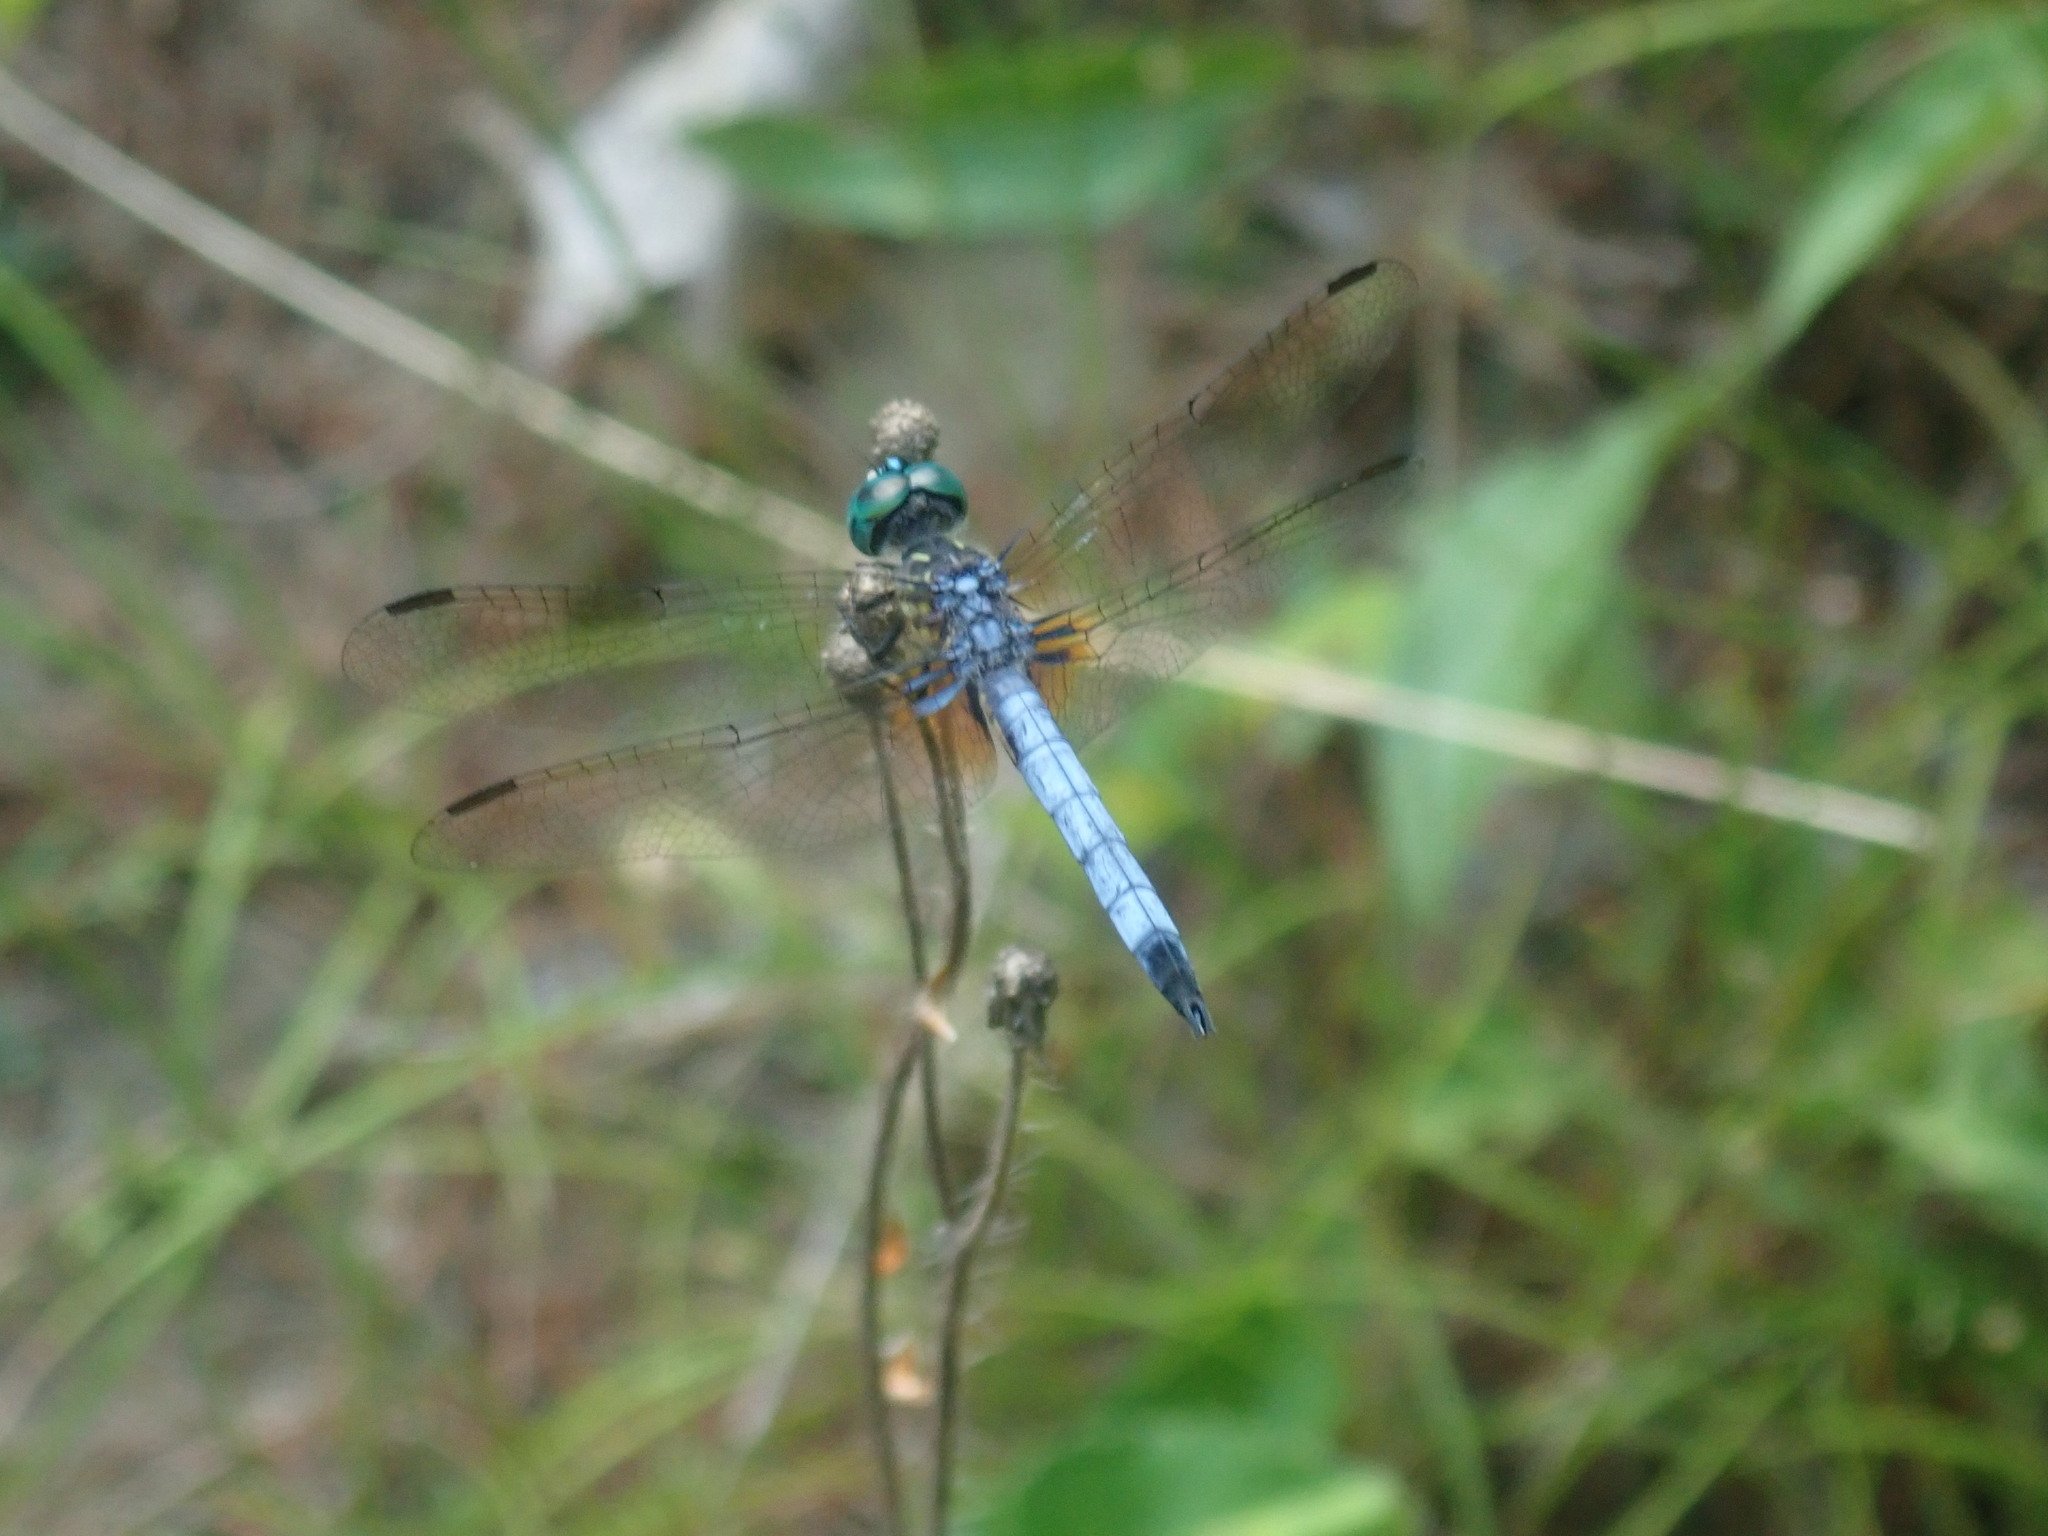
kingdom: Animalia
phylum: Arthropoda
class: Insecta
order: Odonata
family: Libellulidae
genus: Pachydiplax
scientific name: Pachydiplax longipennis
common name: Blue dasher
